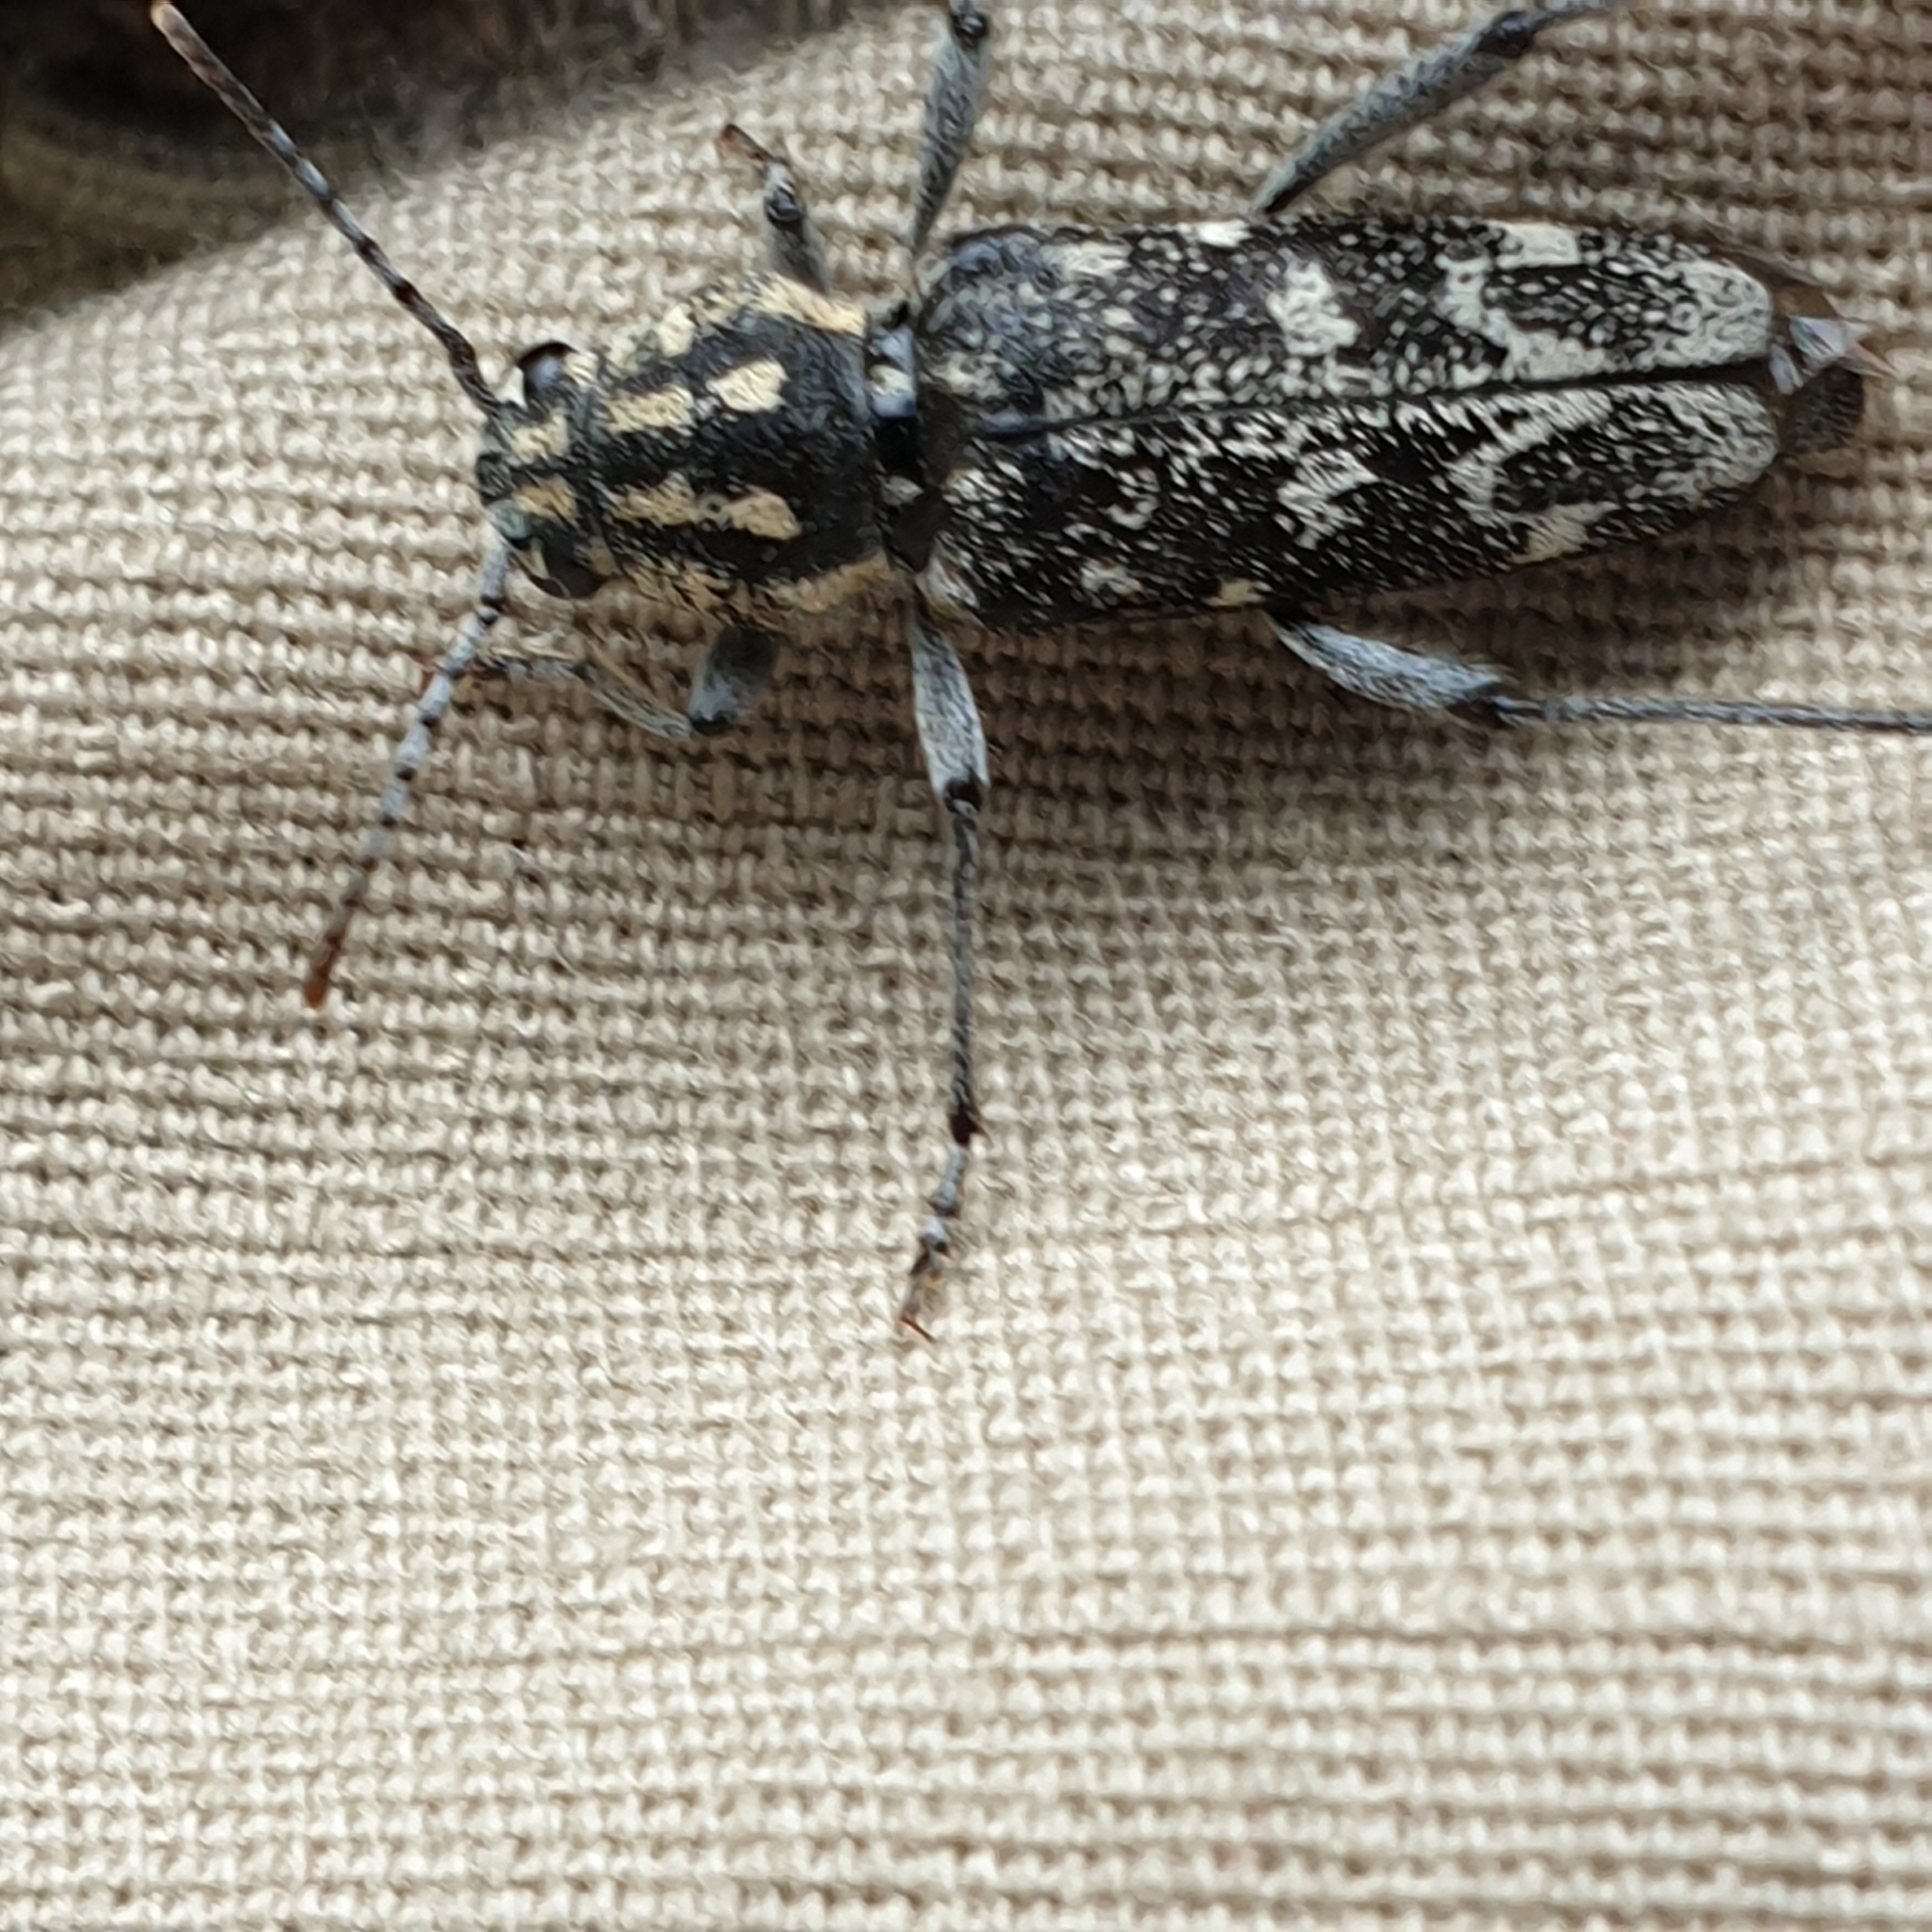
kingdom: Animalia
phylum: Arthropoda
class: Insecta
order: Coleoptera
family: Cerambycidae
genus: Xylotrechus
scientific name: Xylotrechus rusticus
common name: Grey tiger long-horned beetle
